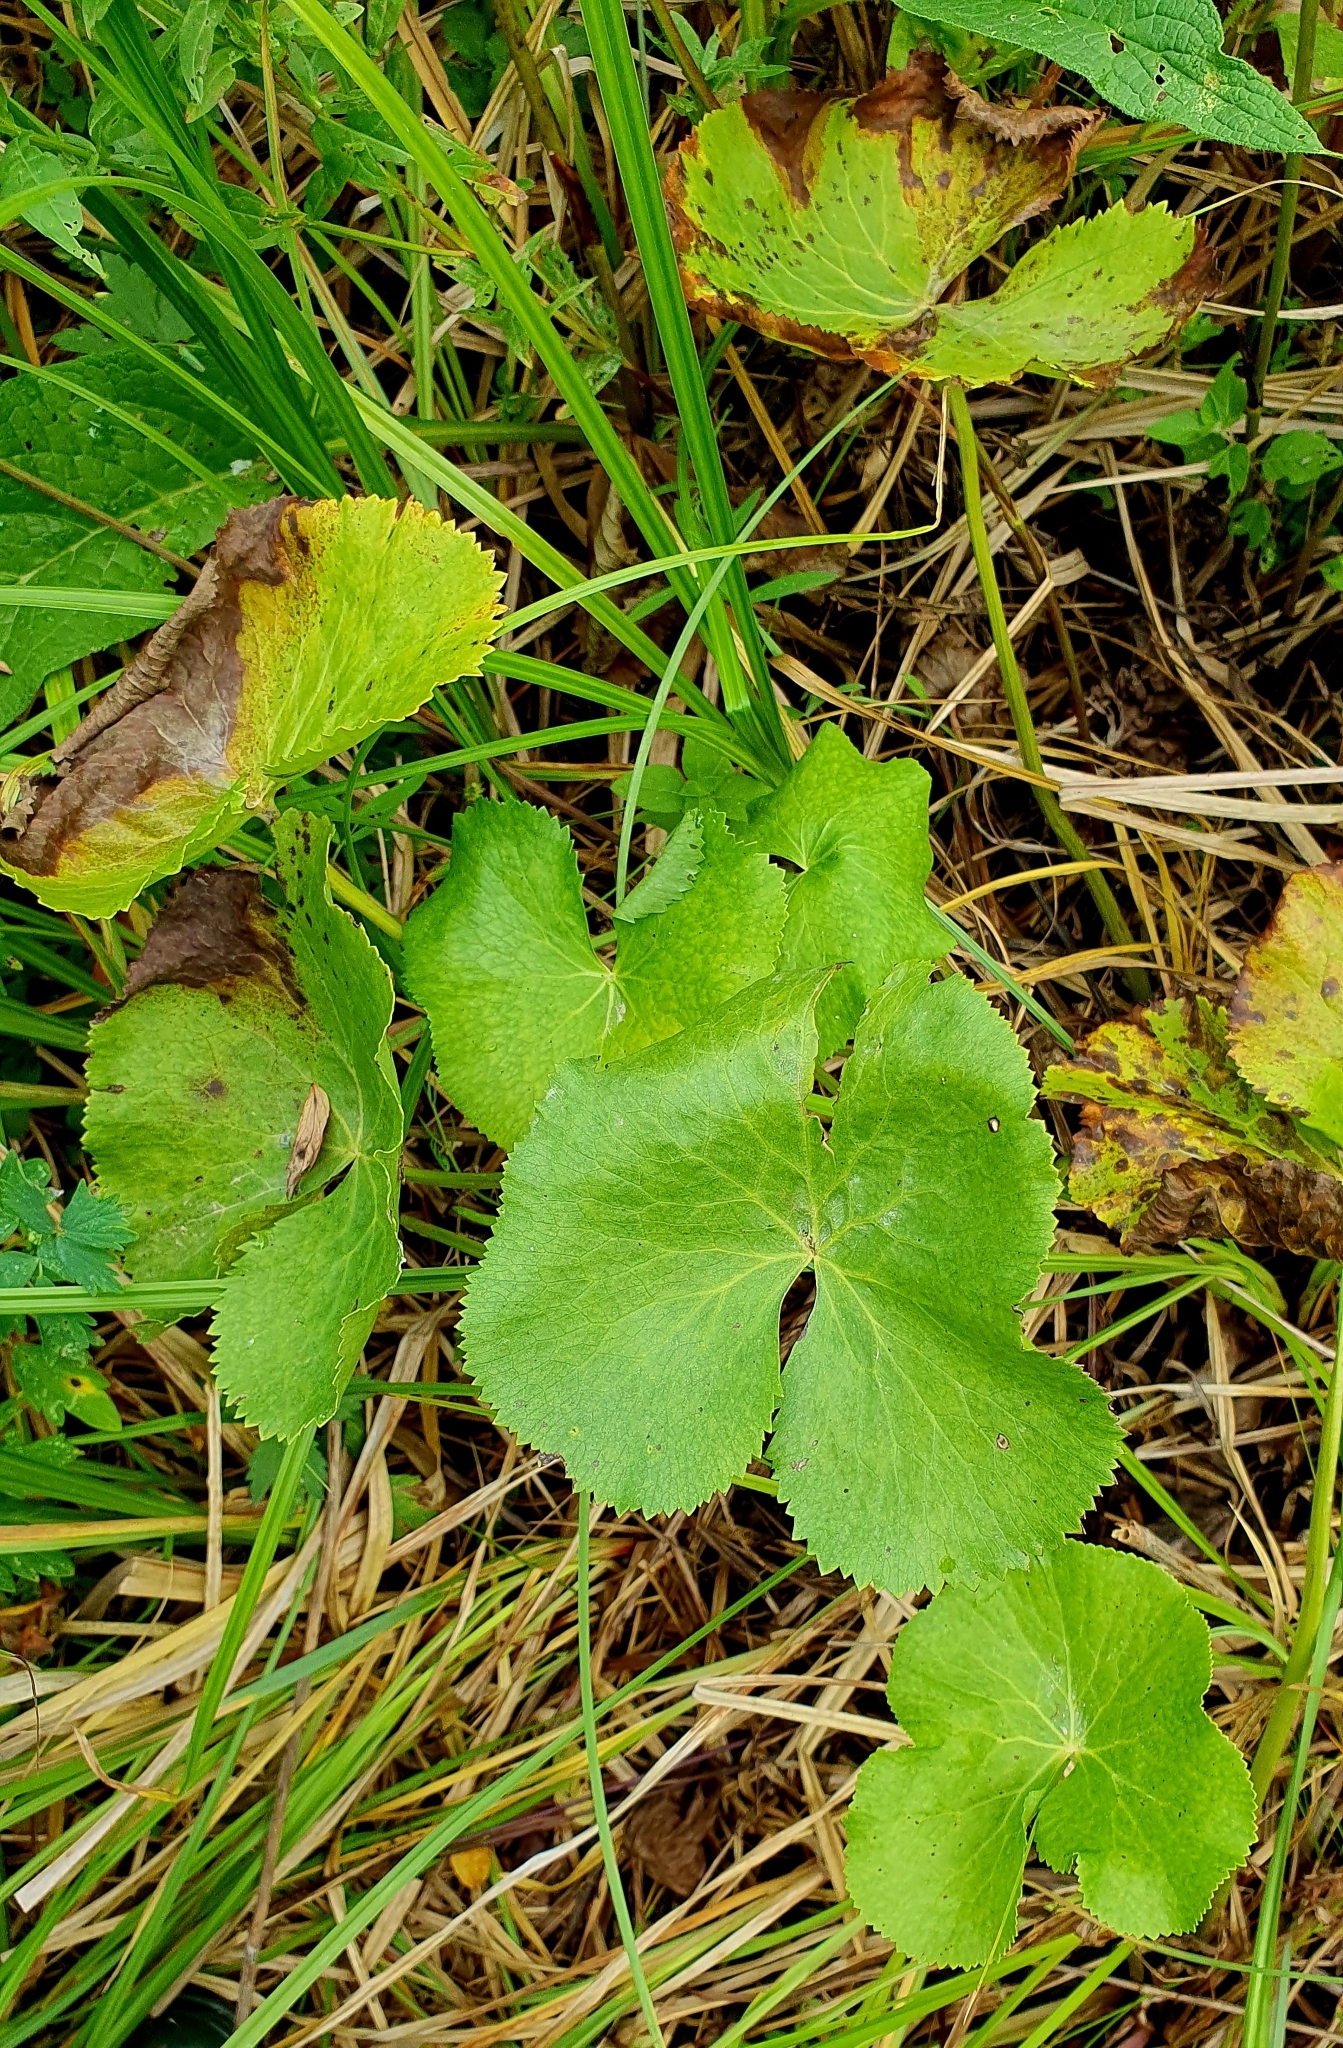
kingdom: Plantae
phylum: Tracheophyta
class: Magnoliopsida
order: Ranunculales
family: Ranunculaceae
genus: Caltha
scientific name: Caltha palustris
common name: Marsh marigold
